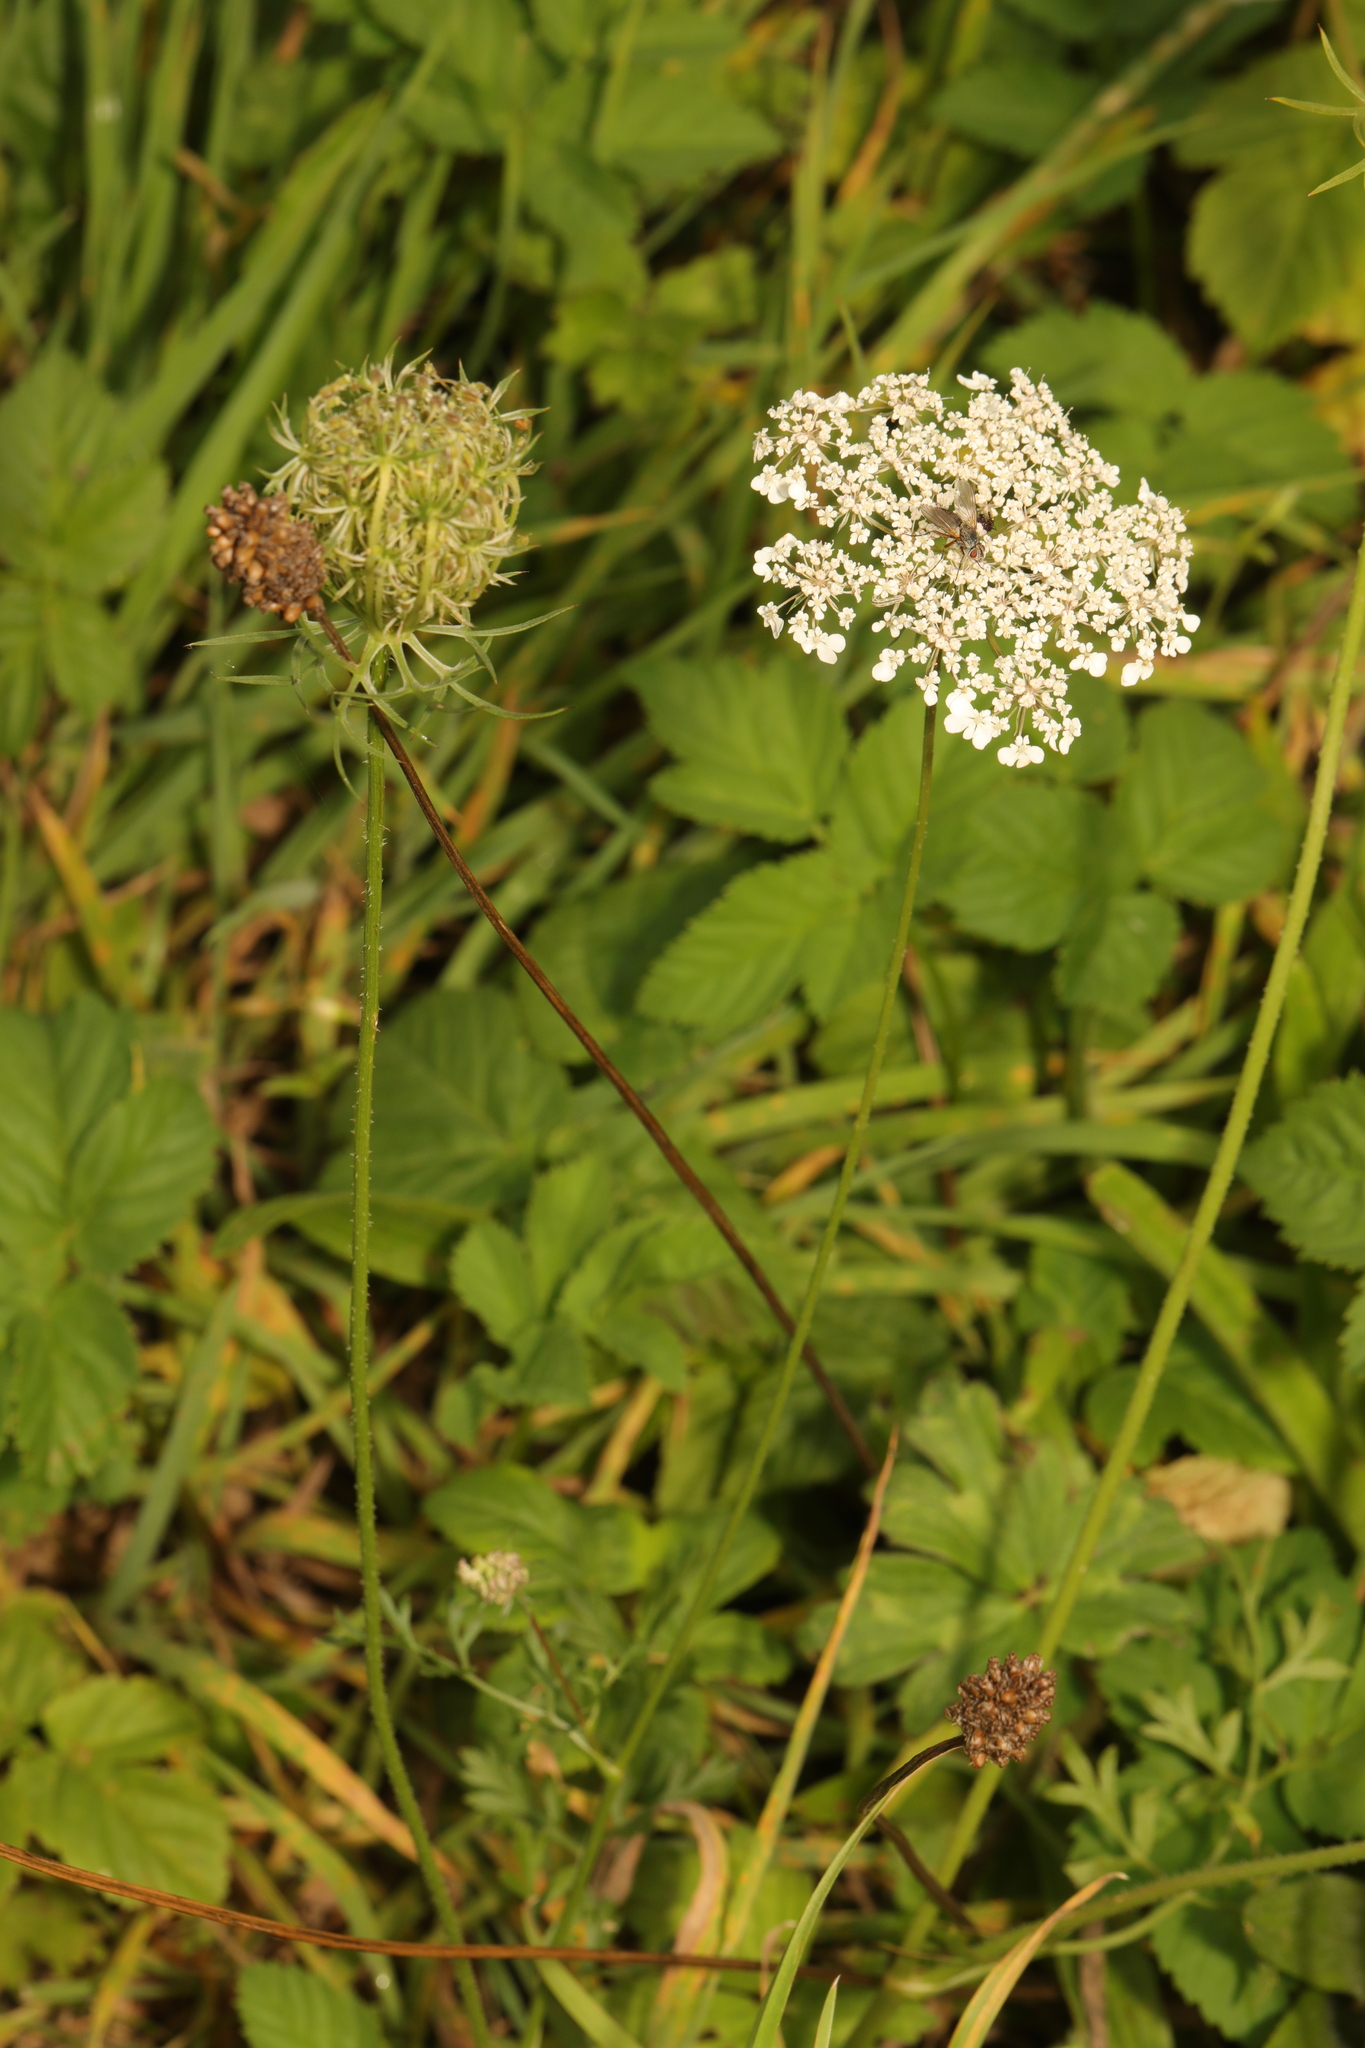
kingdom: Plantae
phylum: Tracheophyta
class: Magnoliopsida
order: Apiales
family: Apiaceae
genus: Daucus
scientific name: Daucus carota
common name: Wild carrot
